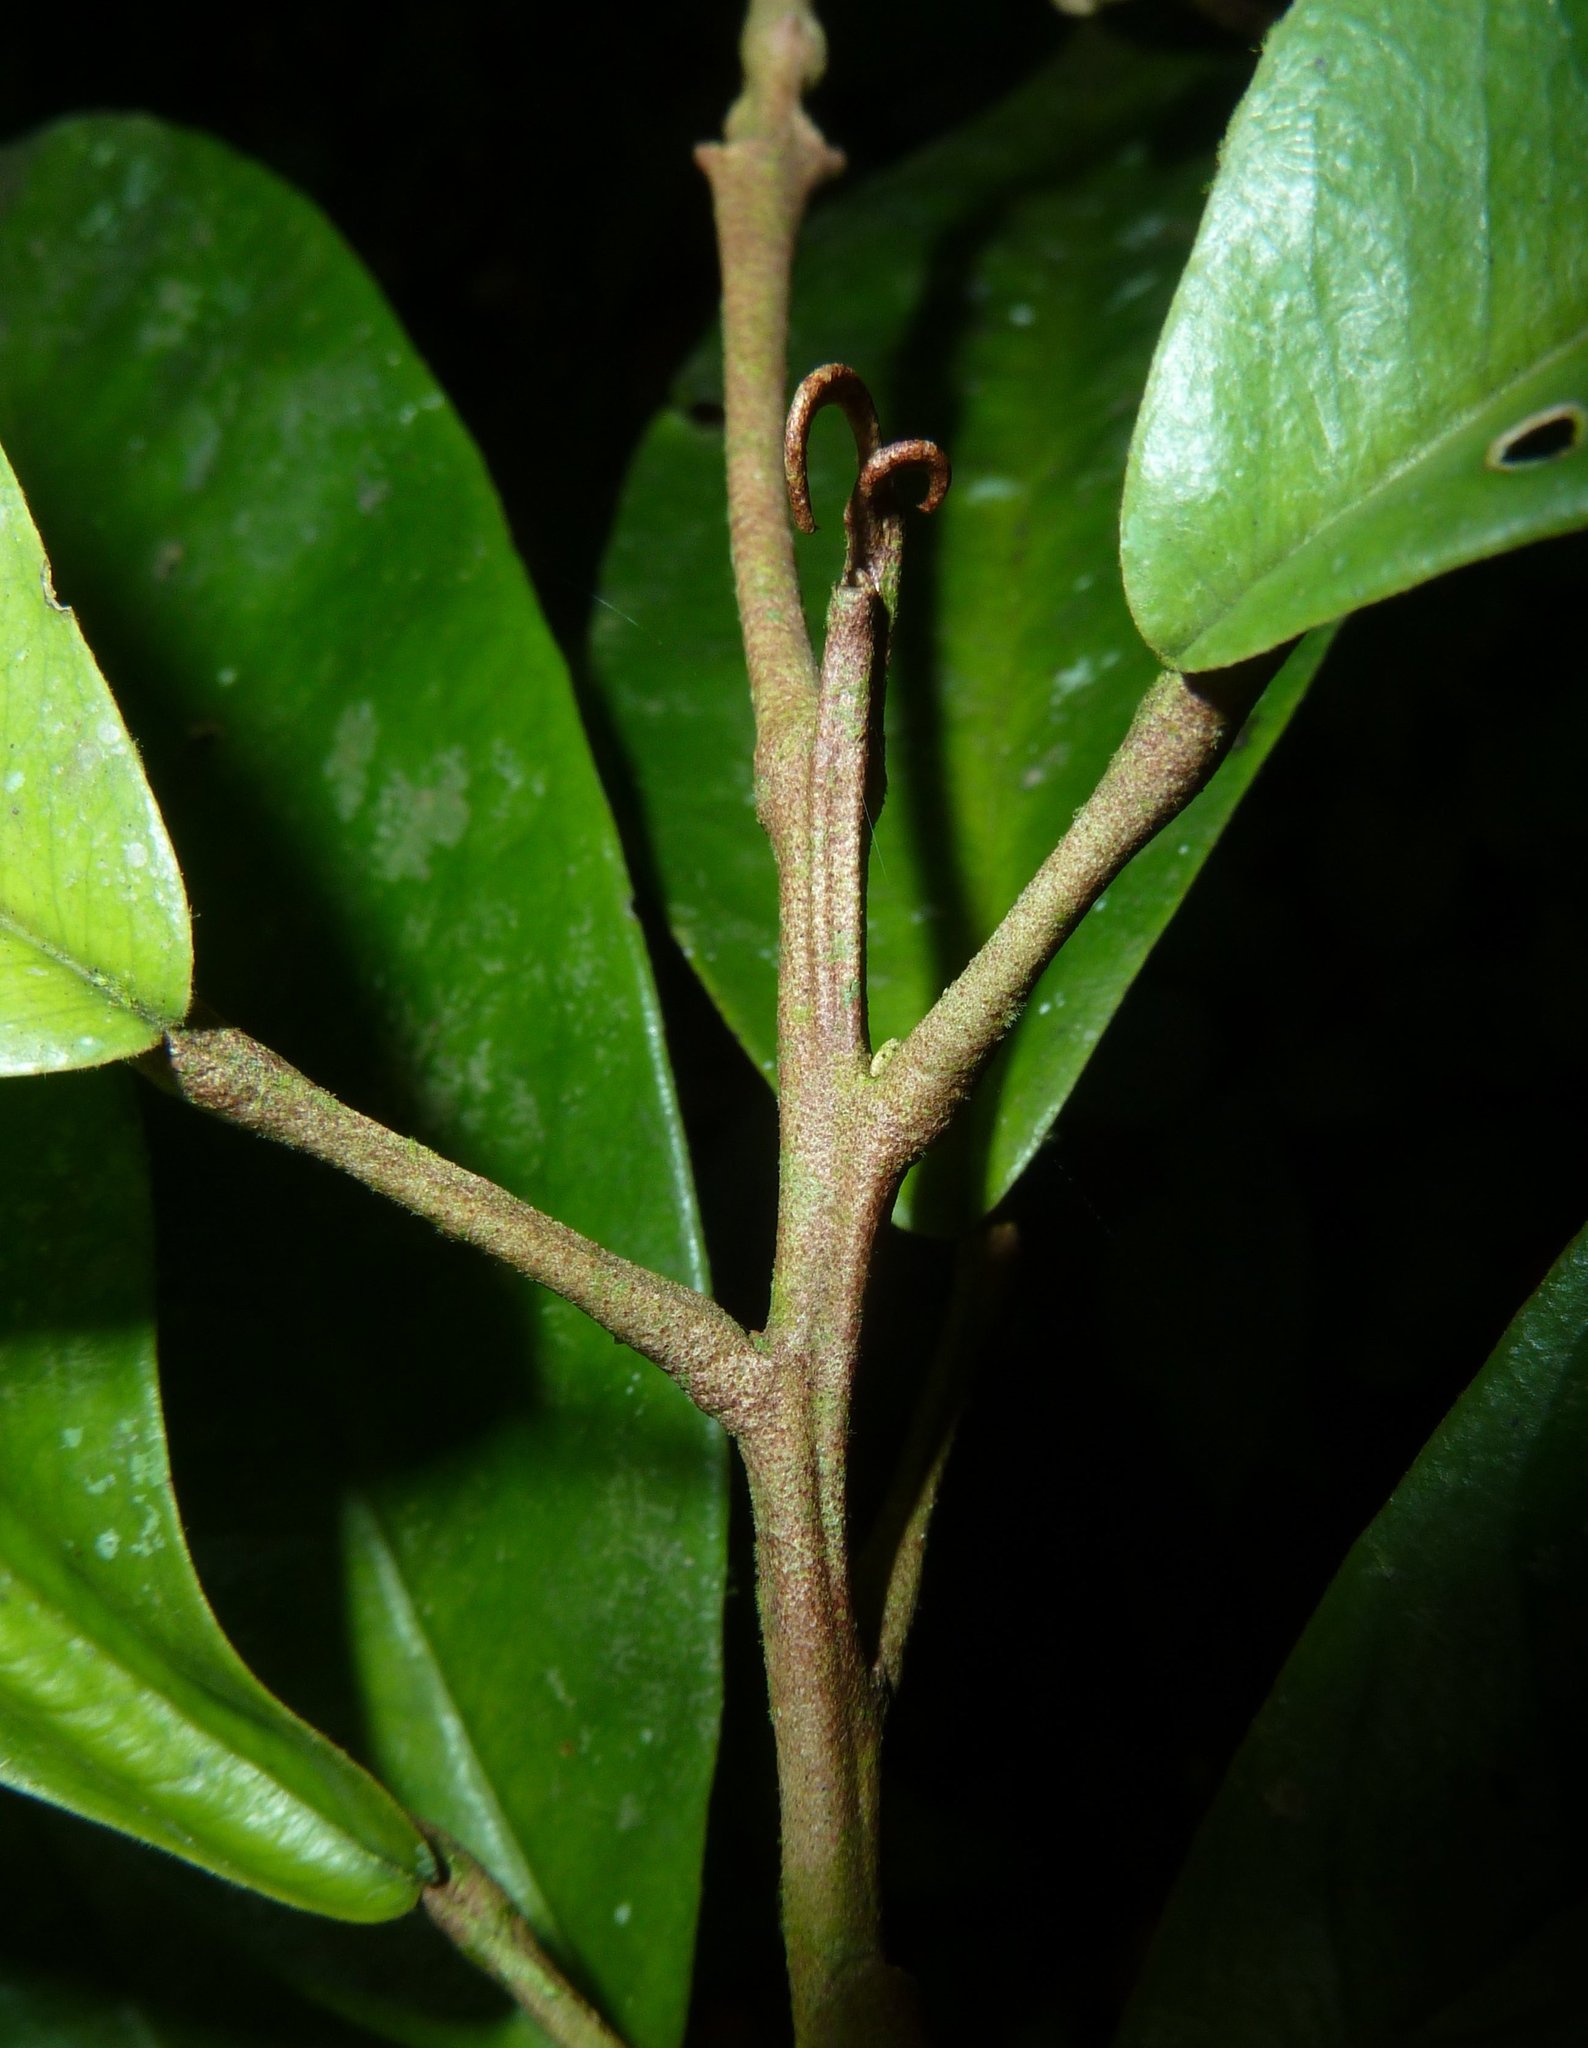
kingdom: Plantae
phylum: Tracheophyta
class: Magnoliopsida
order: Brassicales
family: Capparaceae
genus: Quadrella
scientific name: Quadrella isthmensis
